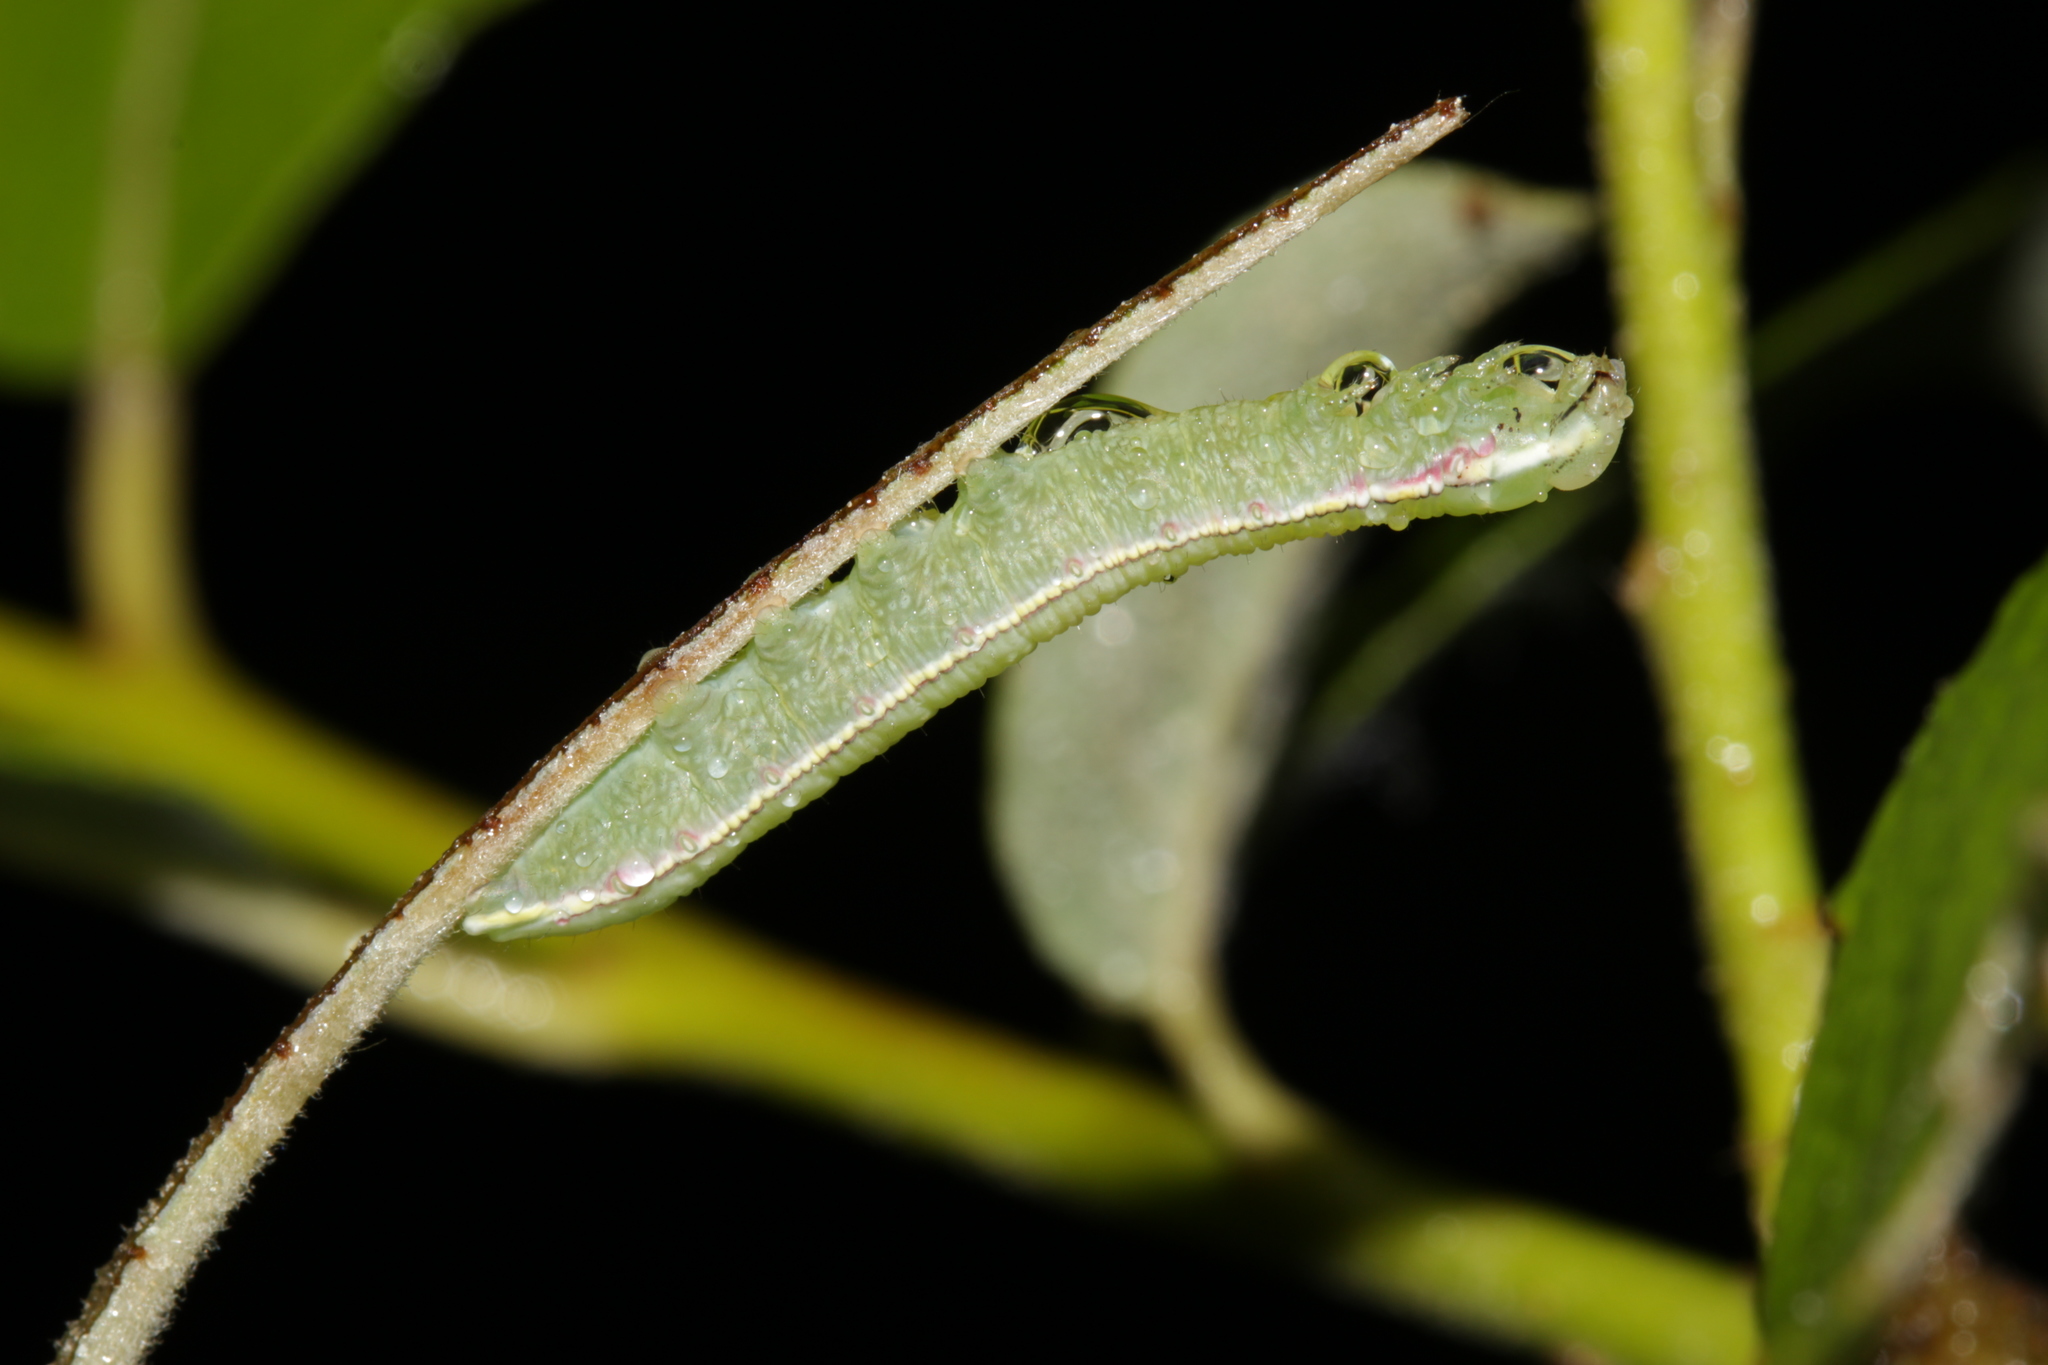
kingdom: Animalia
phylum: Arthropoda
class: Insecta
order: Lepidoptera
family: Notodontidae
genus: Pterostoma
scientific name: Pterostoma palpina
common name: Pale prominent
